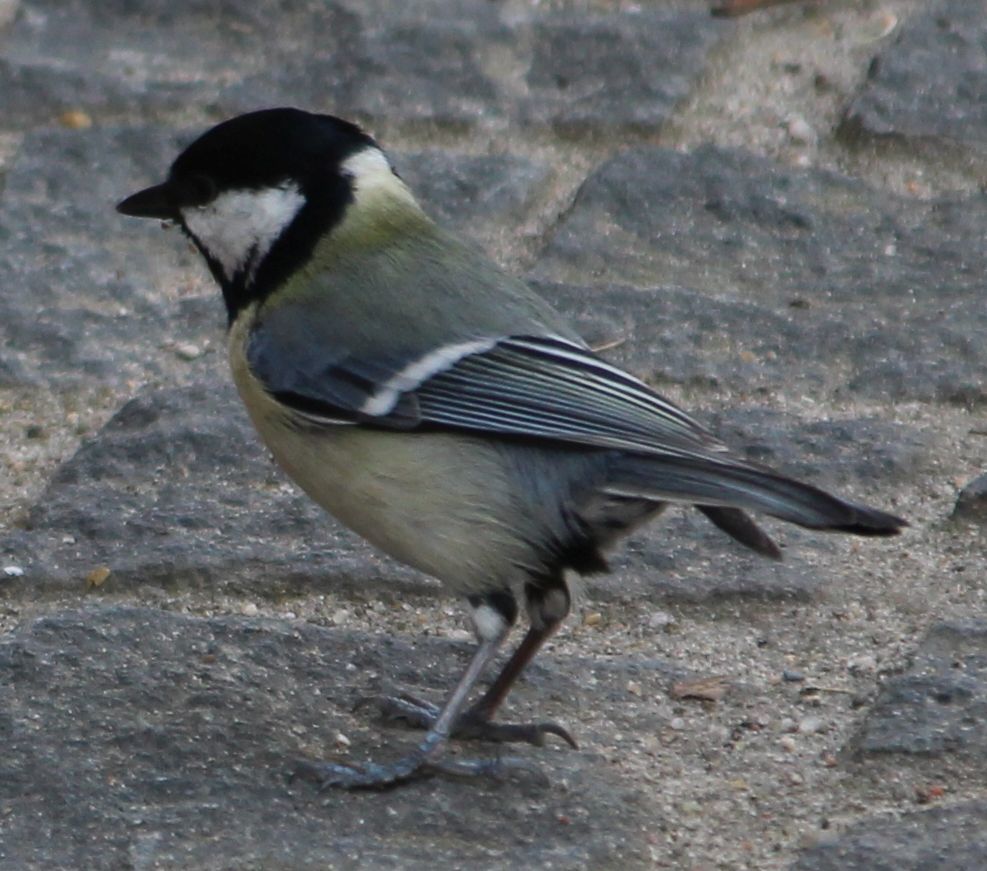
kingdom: Animalia
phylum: Chordata
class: Aves
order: Passeriformes
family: Paridae
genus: Parus
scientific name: Parus major
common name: Great tit
